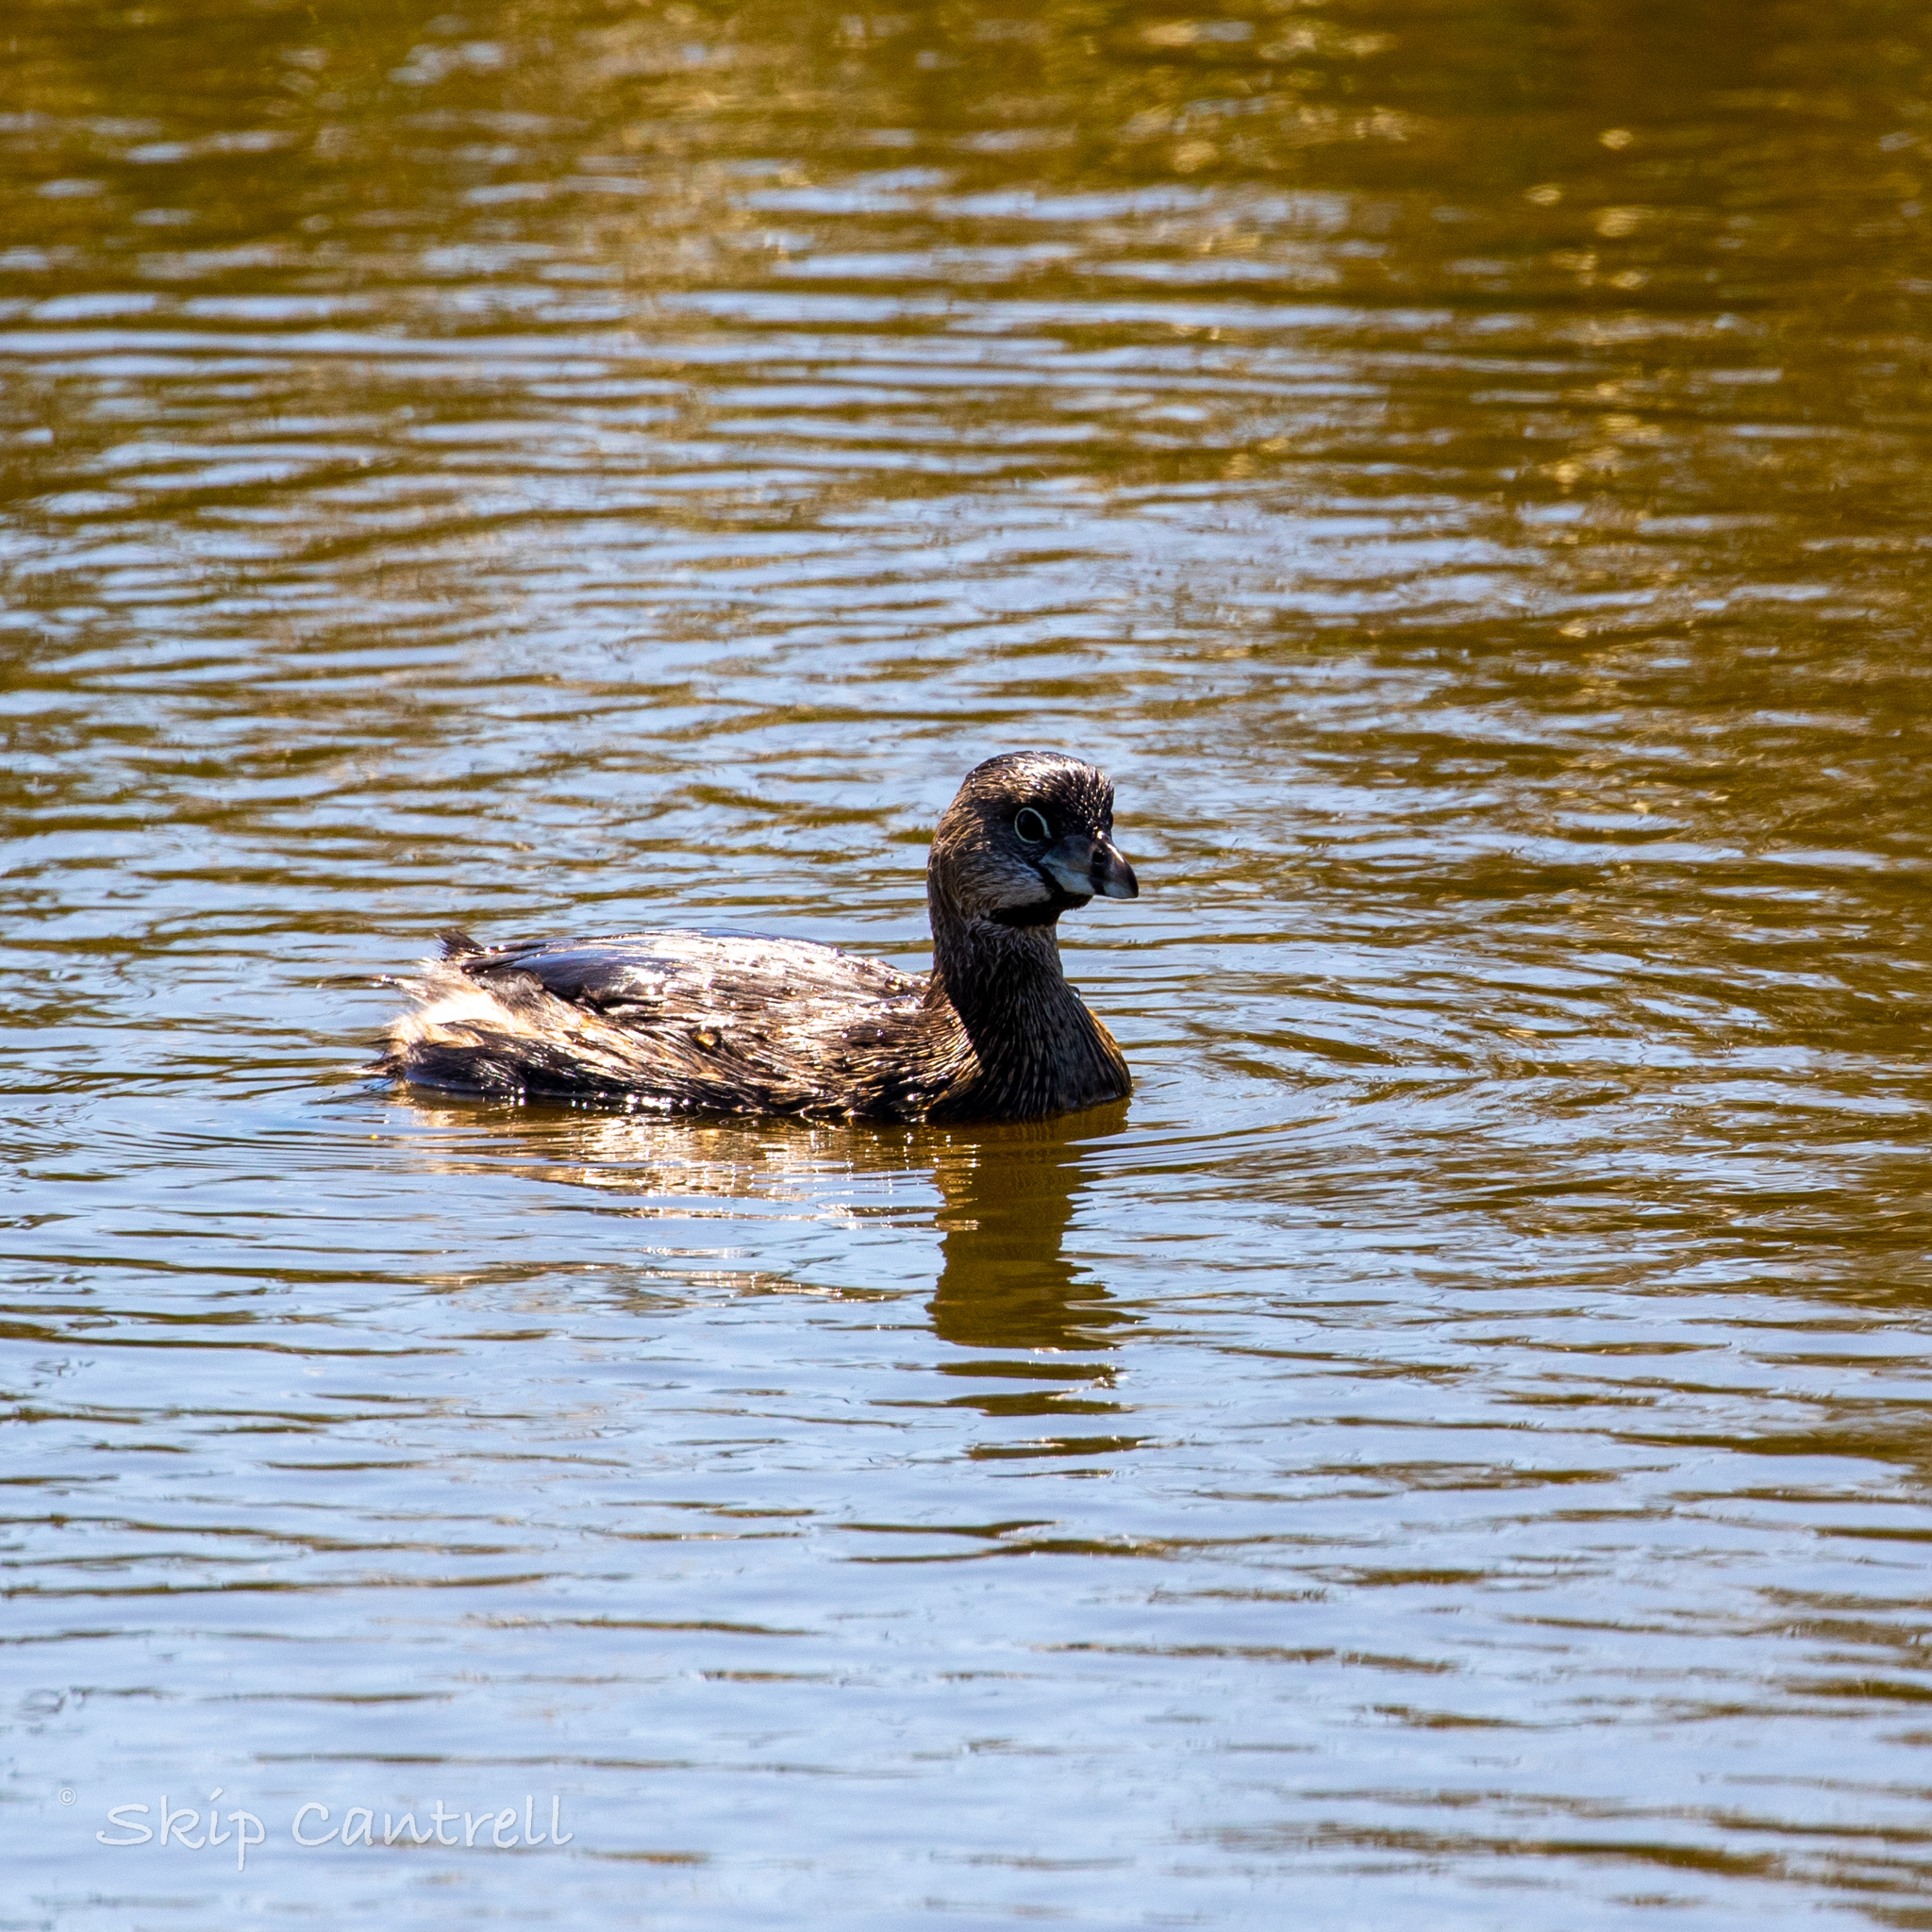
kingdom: Animalia
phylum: Chordata
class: Aves
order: Podicipediformes
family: Podicipedidae
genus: Podilymbus
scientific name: Podilymbus podiceps
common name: Pied-billed grebe
